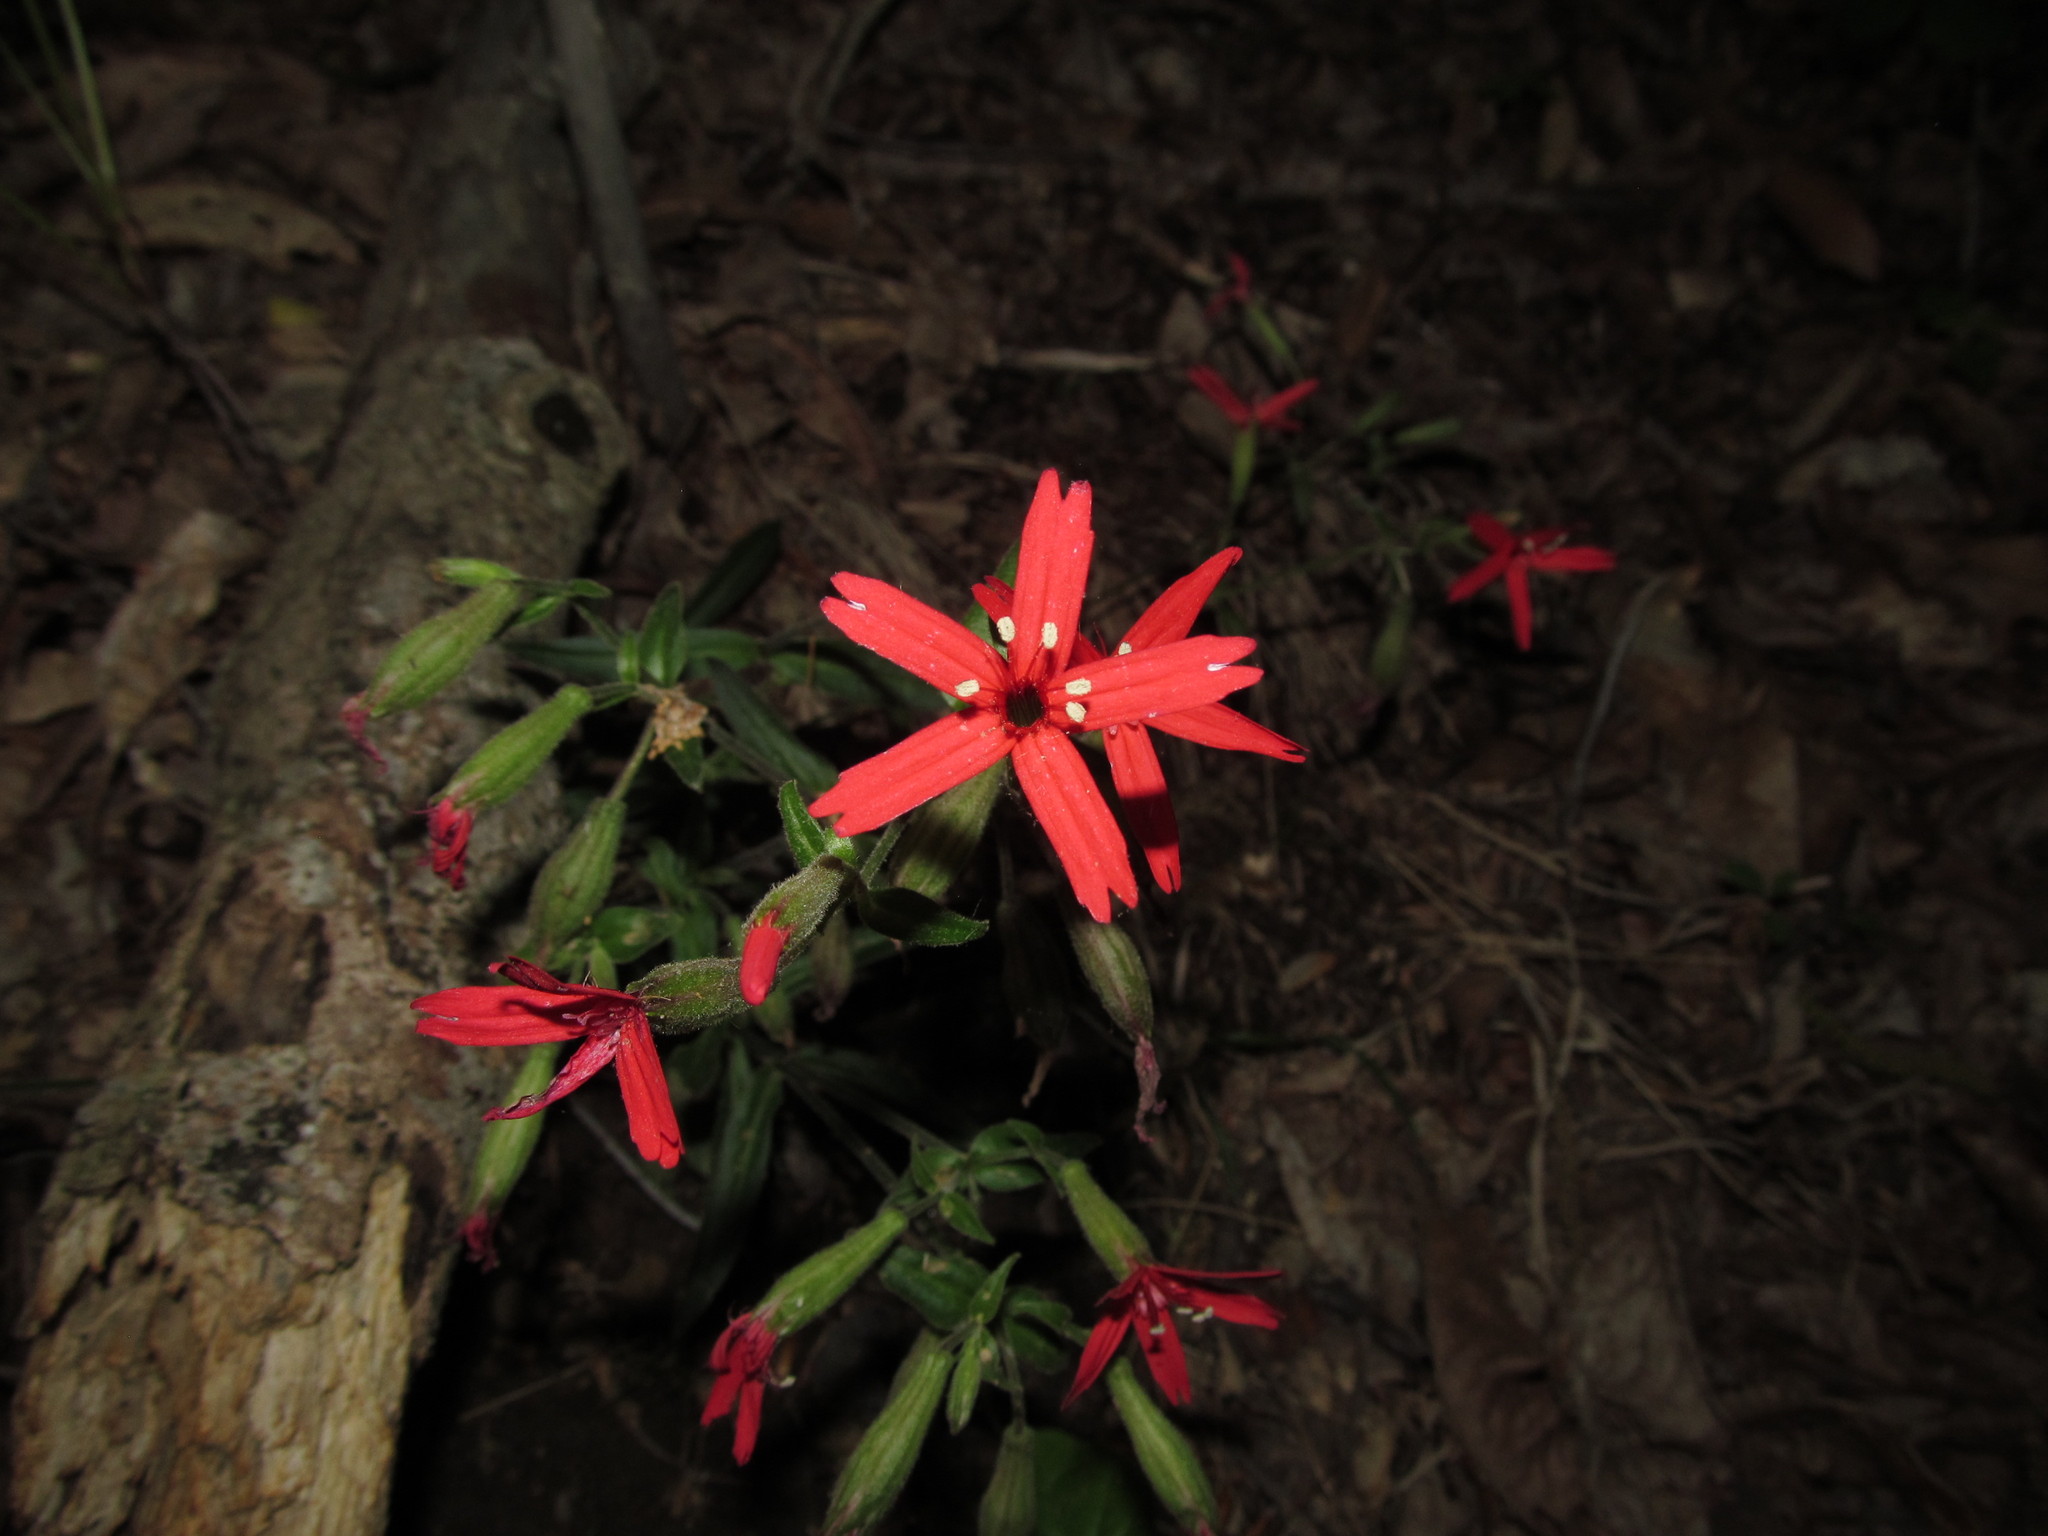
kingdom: Plantae
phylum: Tracheophyta
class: Magnoliopsida
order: Caryophyllales
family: Caryophyllaceae
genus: Silene
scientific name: Silene virginica
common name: Fire-pink
